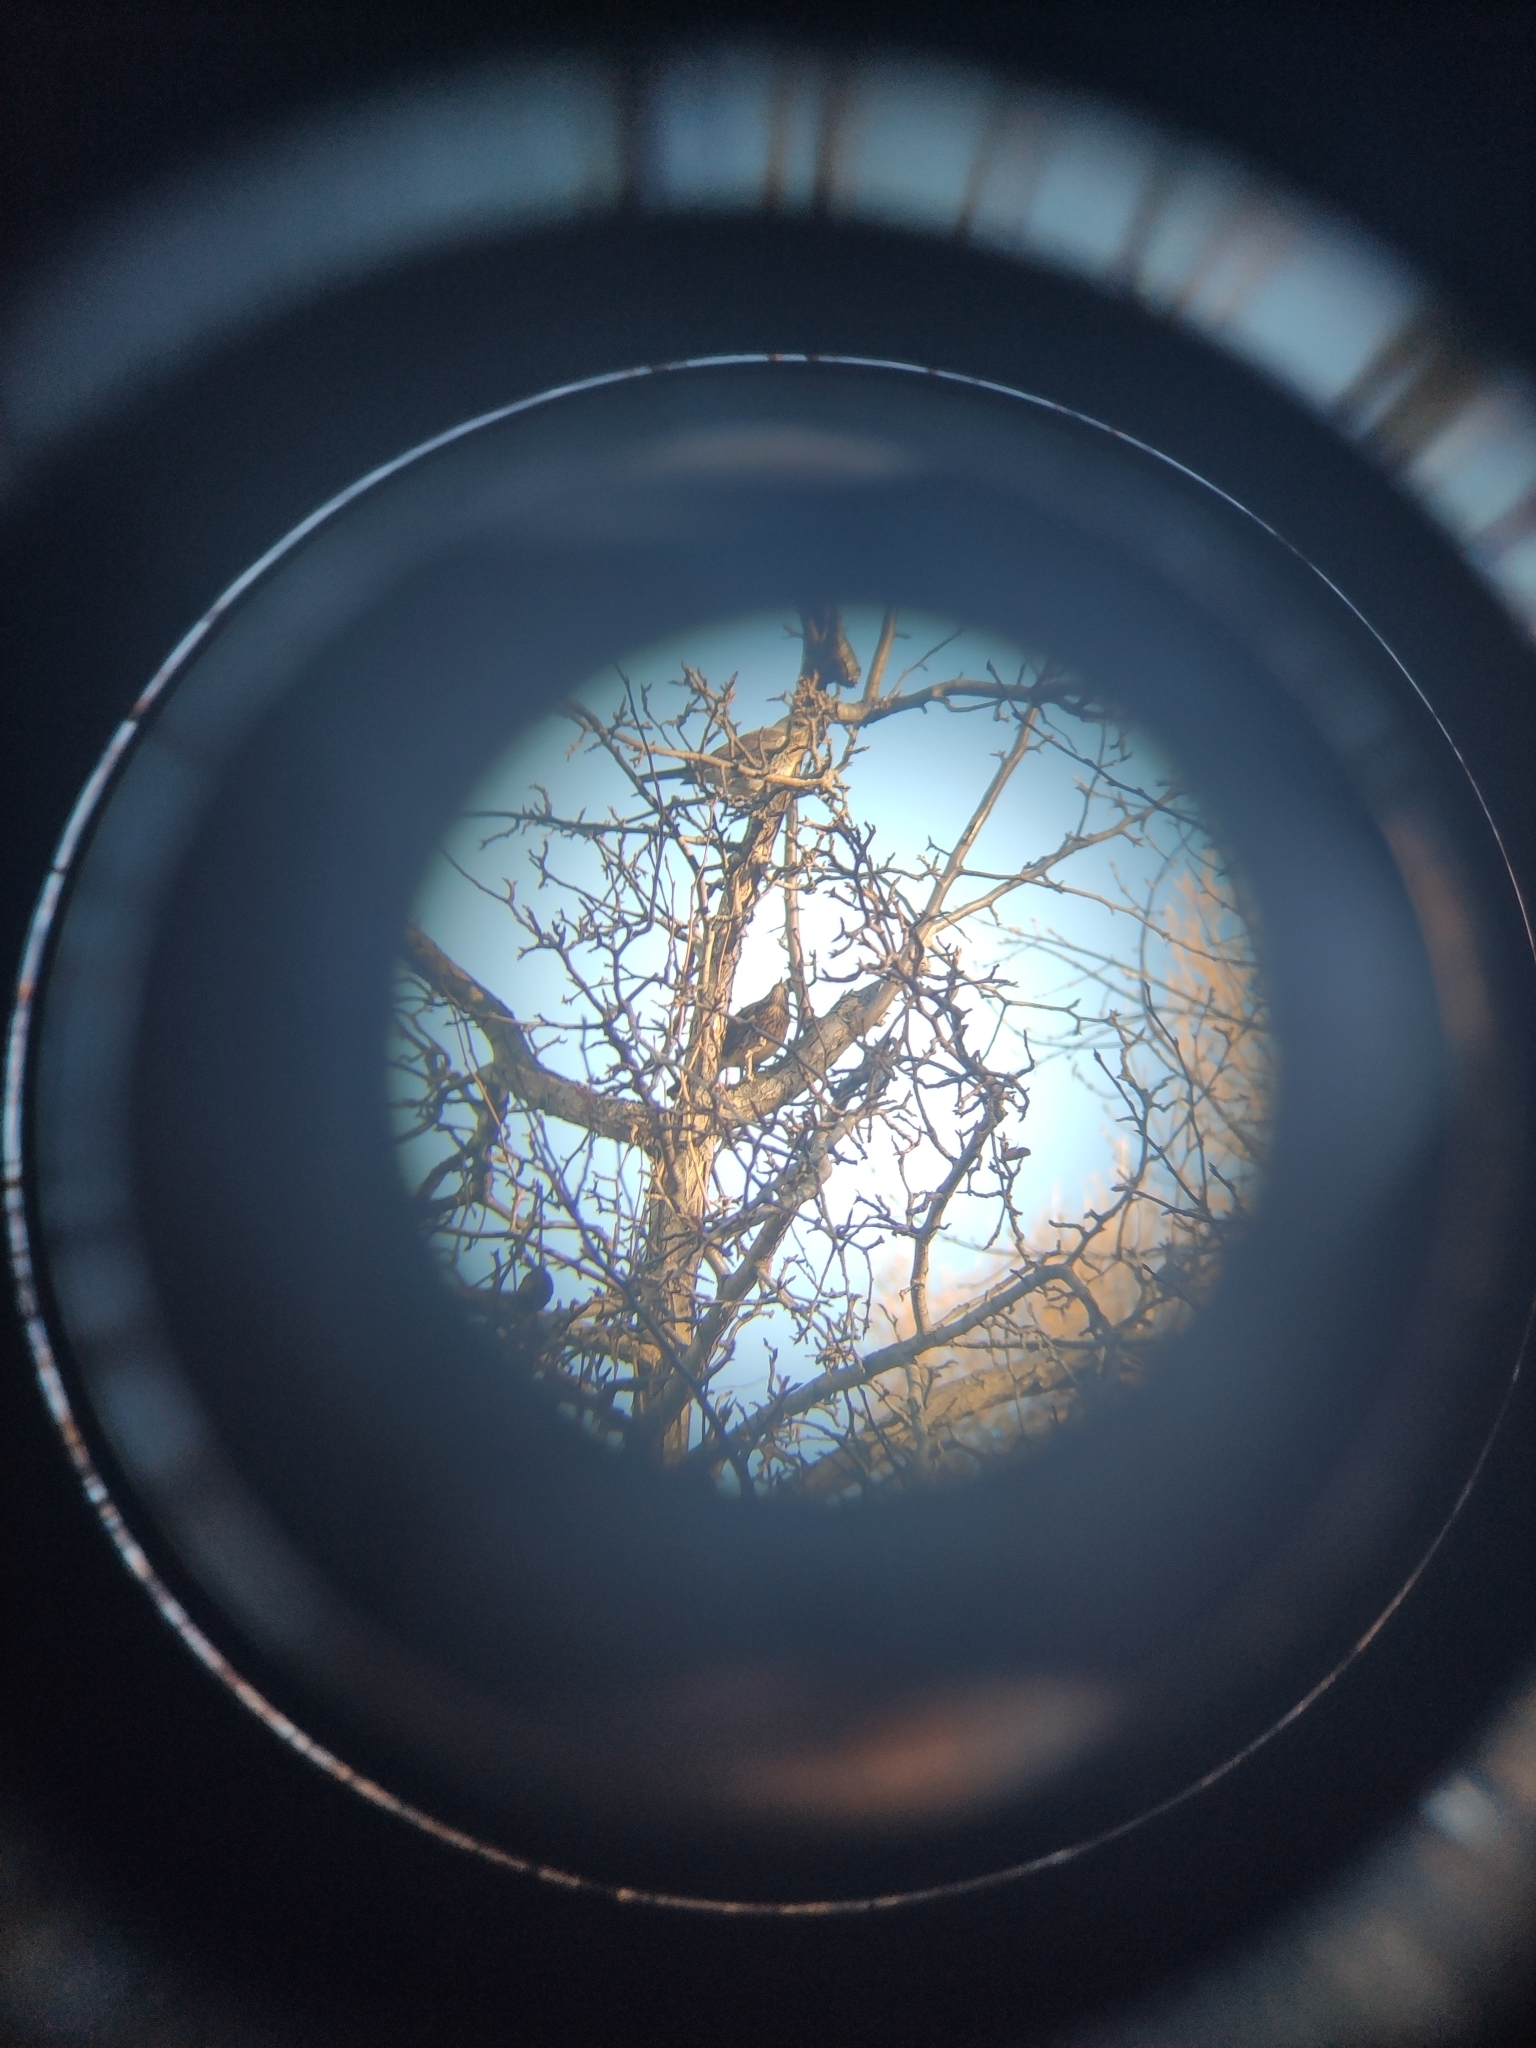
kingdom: Animalia
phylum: Chordata
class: Aves
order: Passeriformes
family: Turdidae
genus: Turdus
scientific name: Turdus pilaris
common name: Fieldfare
